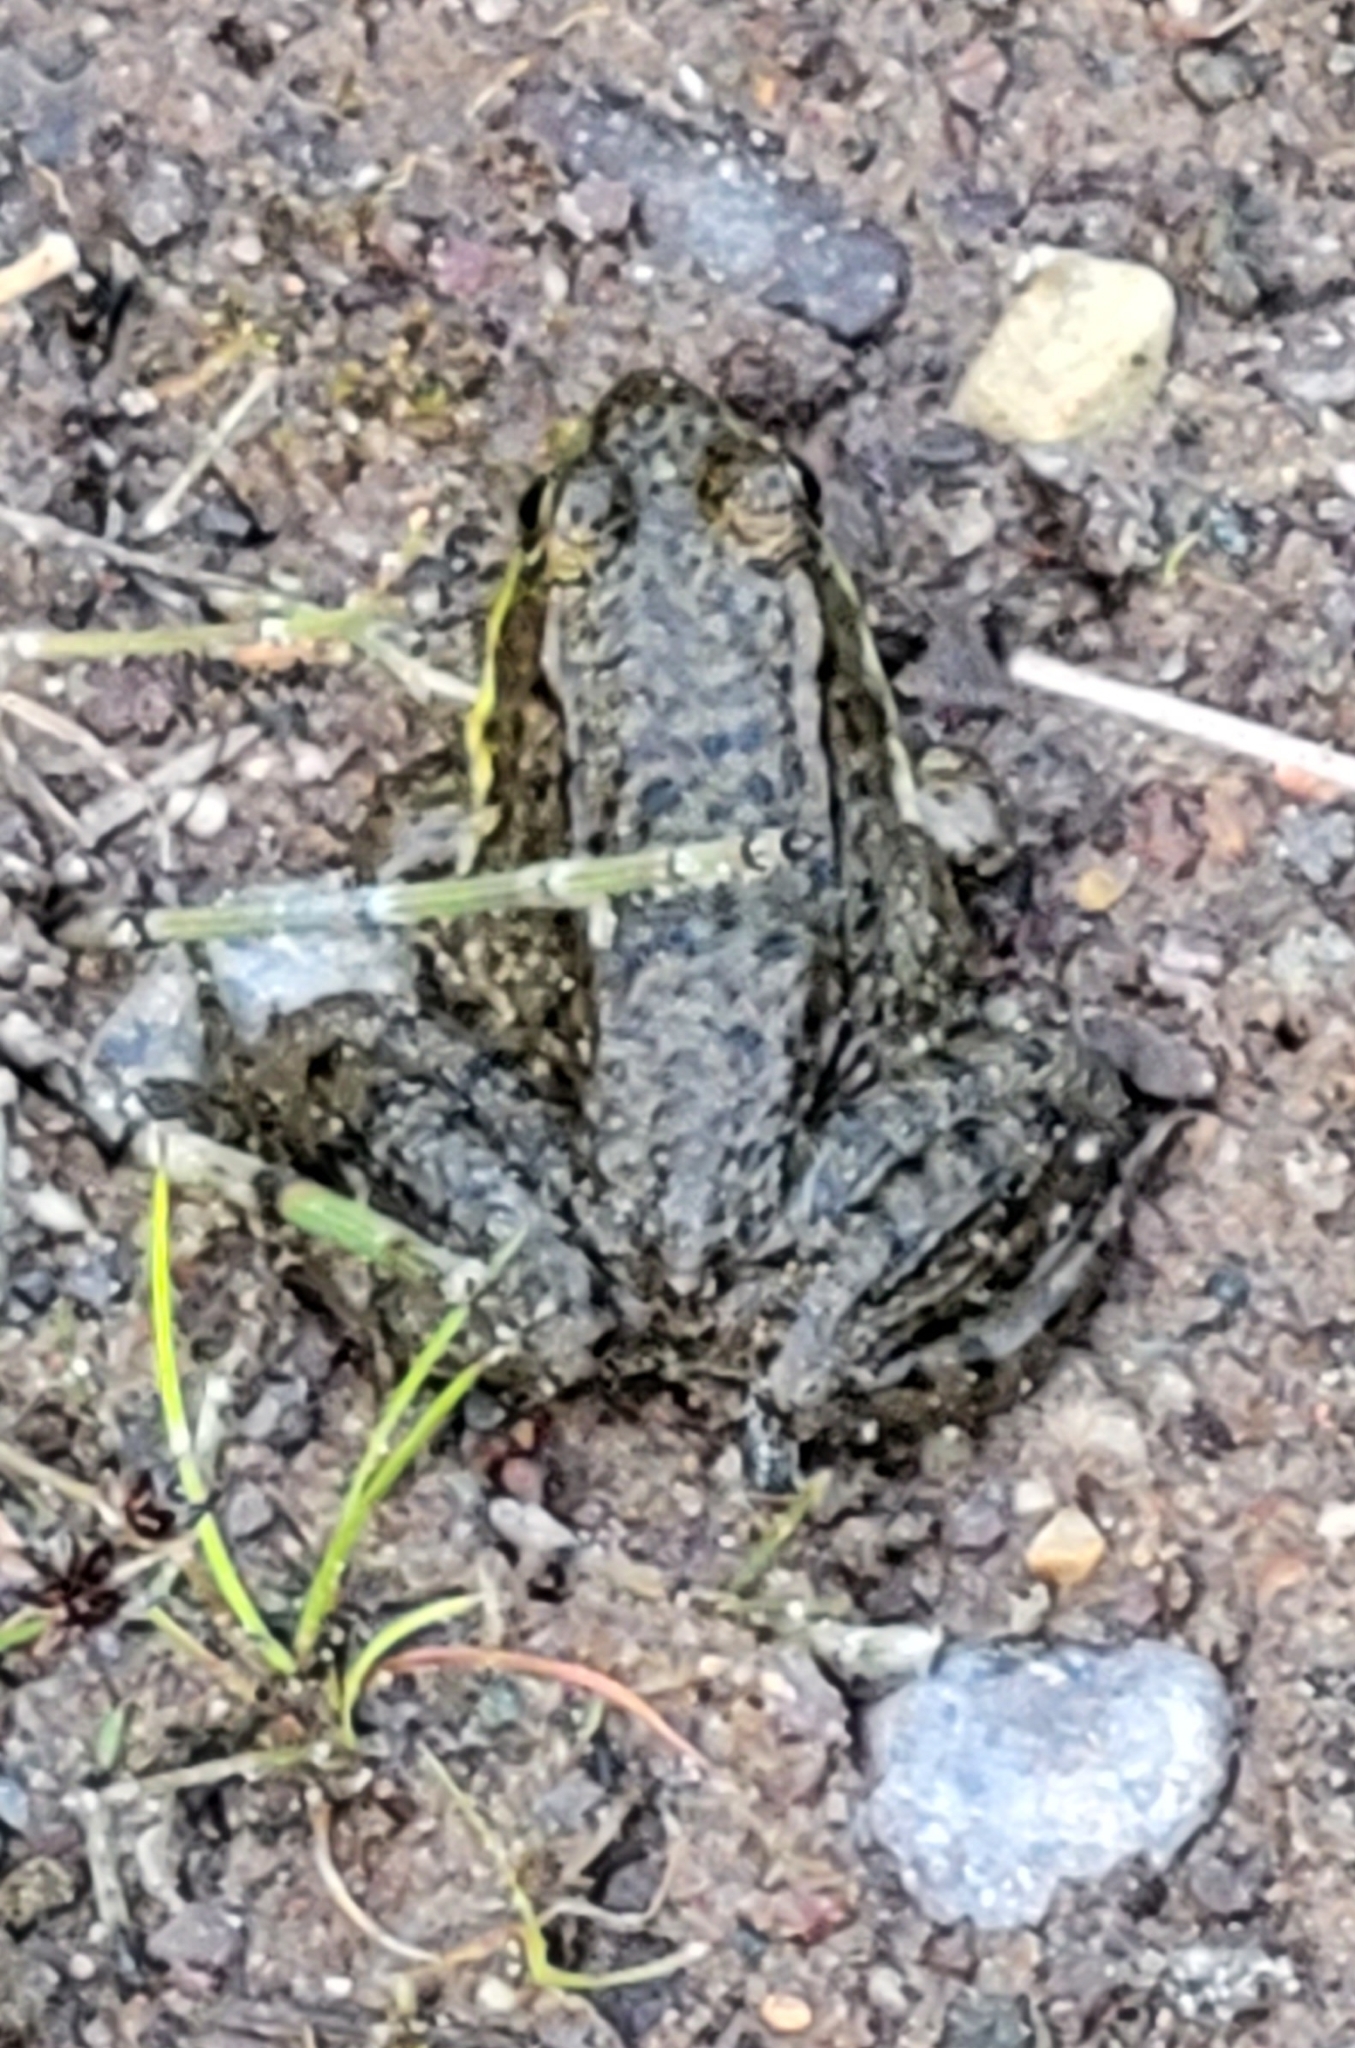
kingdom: Animalia
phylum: Chordata
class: Amphibia
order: Anura
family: Ranidae
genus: Lithobates
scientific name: Lithobates clamitans
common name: Green frog
